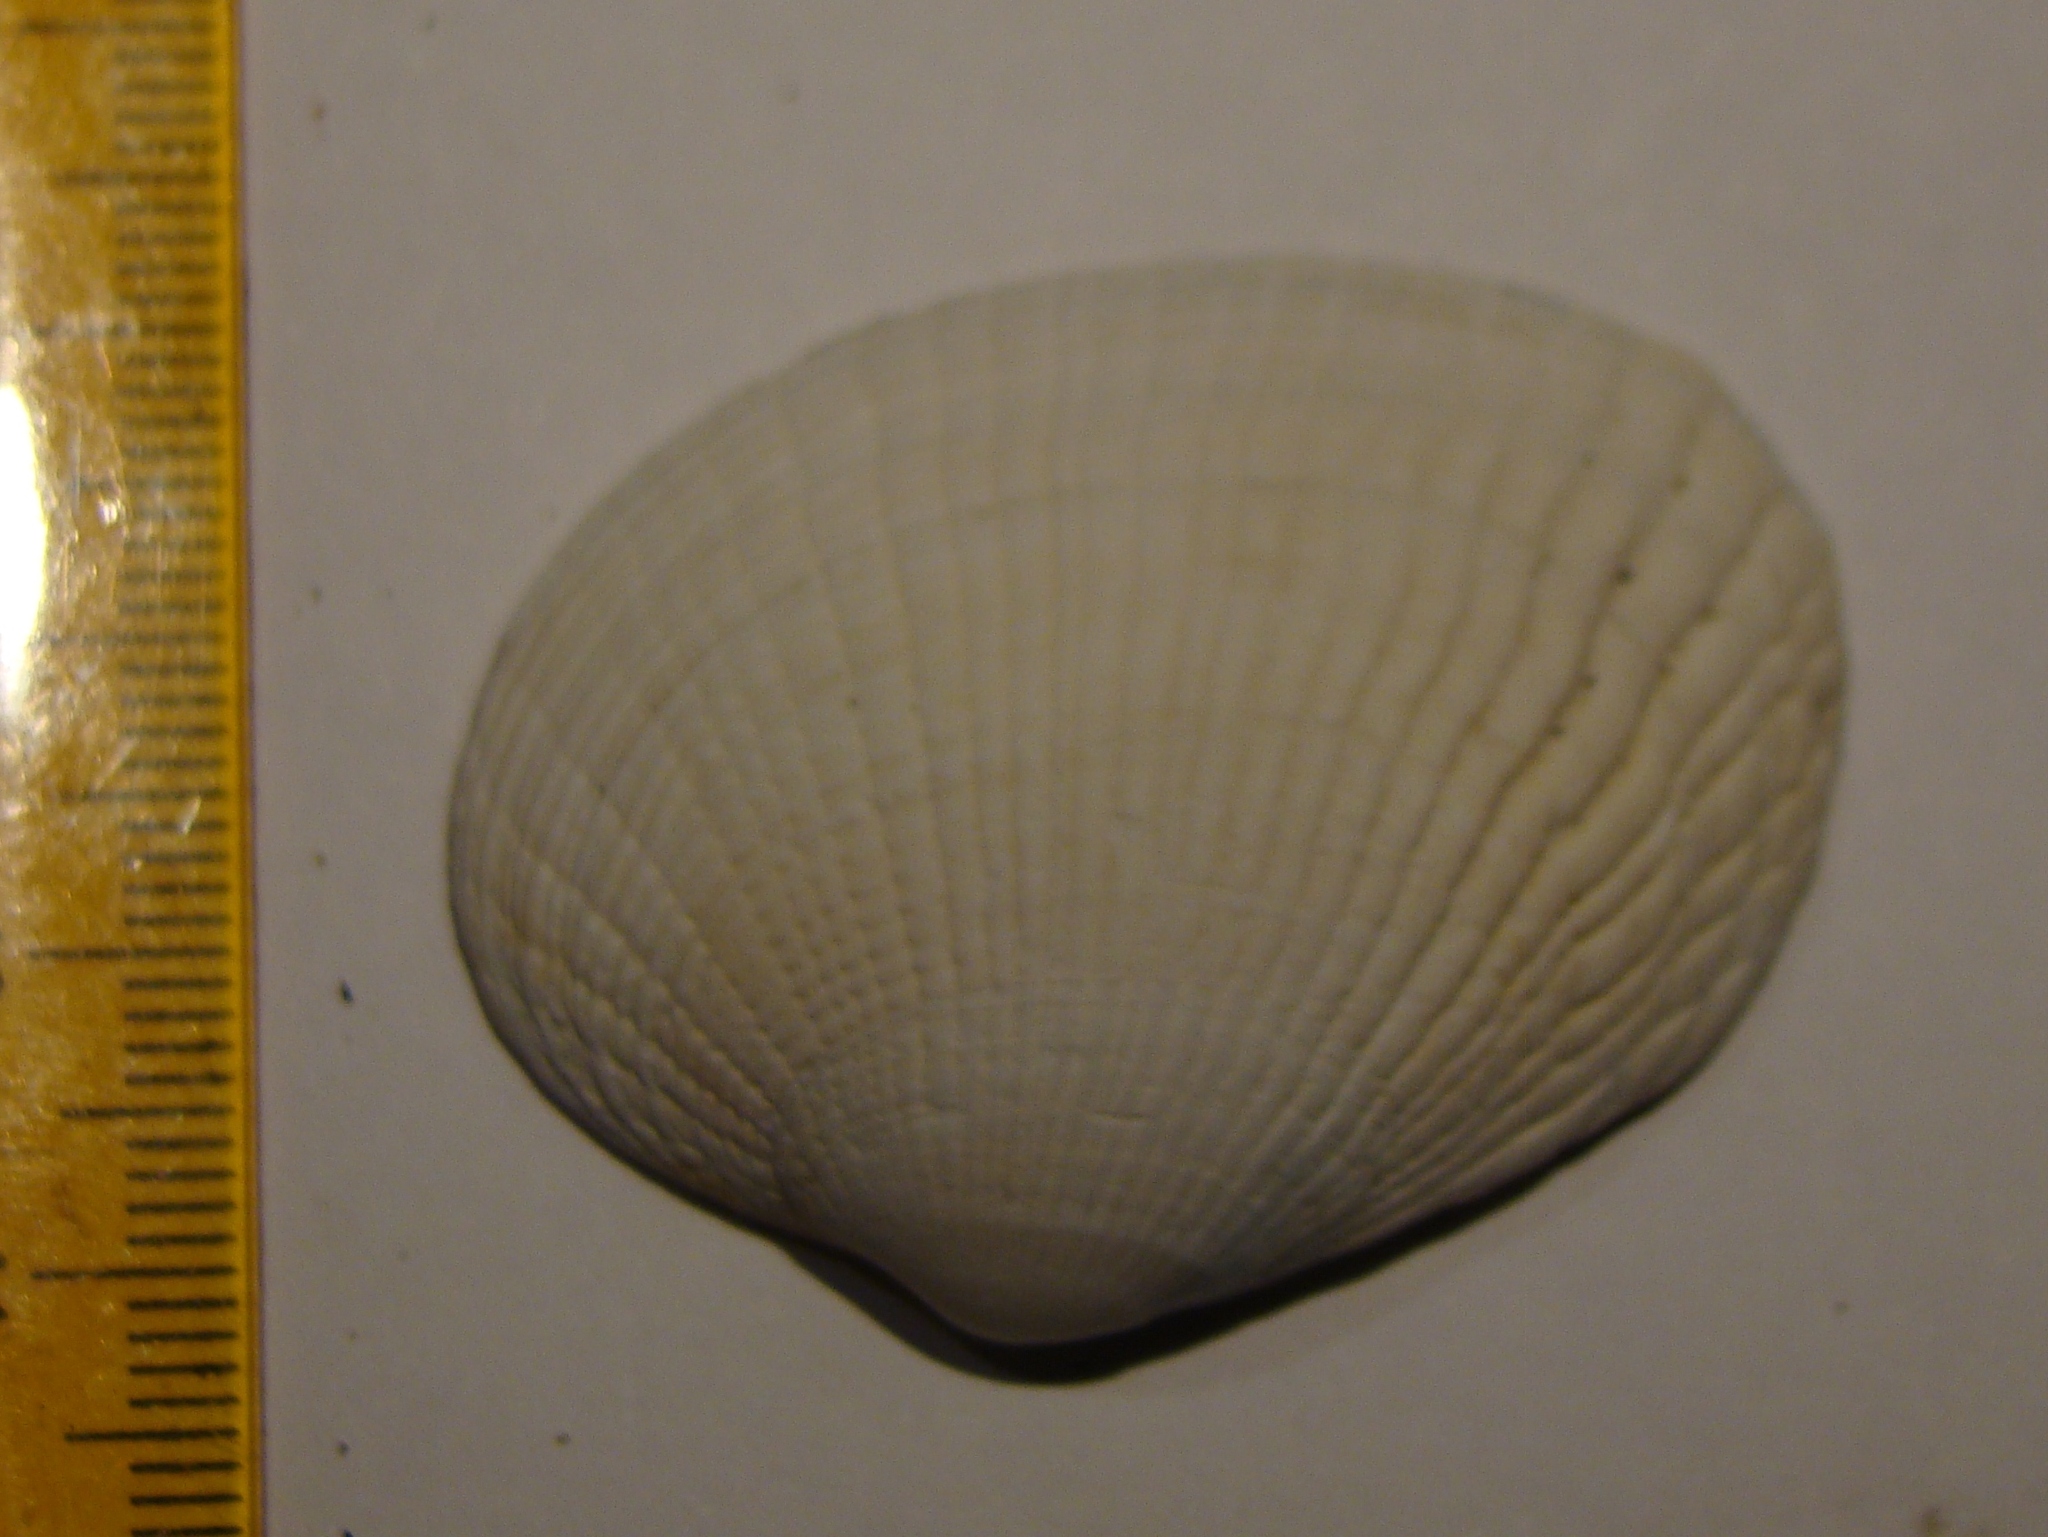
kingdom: Animalia
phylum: Mollusca
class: Bivalvia
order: Venerida
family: Veneridae
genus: Leukoma
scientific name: Leukoma crassicosta
